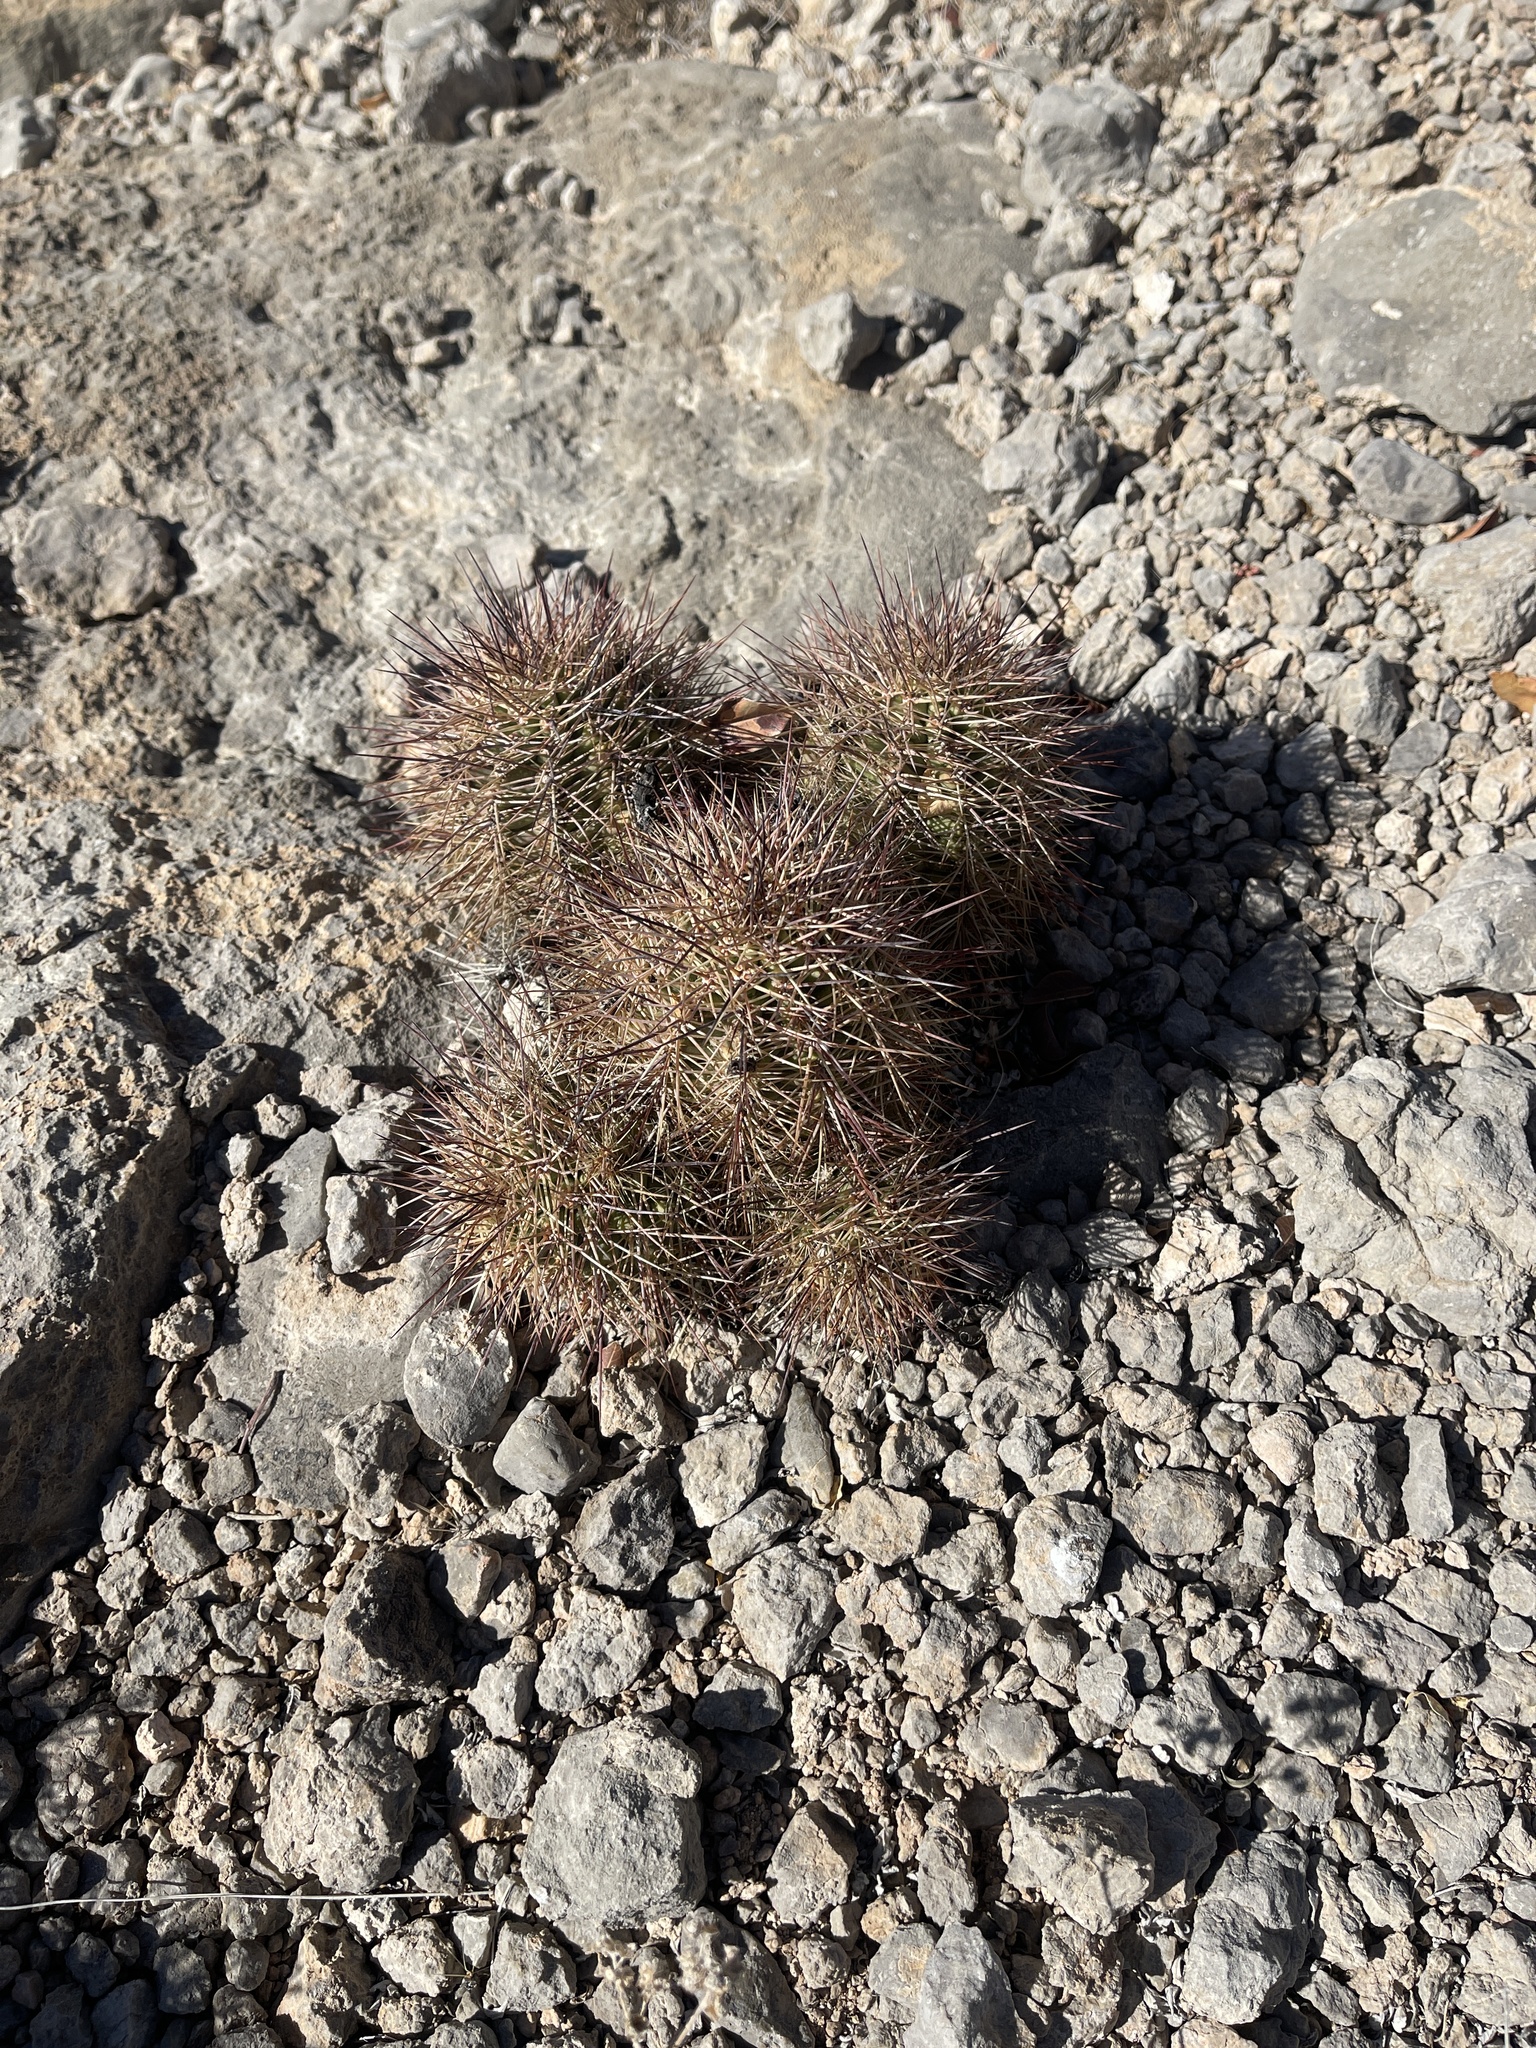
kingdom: Plantae
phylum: Tracheophyta
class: Magnoliopsida
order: Caryophyllales
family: Cactaceae
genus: Echinocereus
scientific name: Echinocereus coccineus
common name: Scarlet hedgehog cactus
